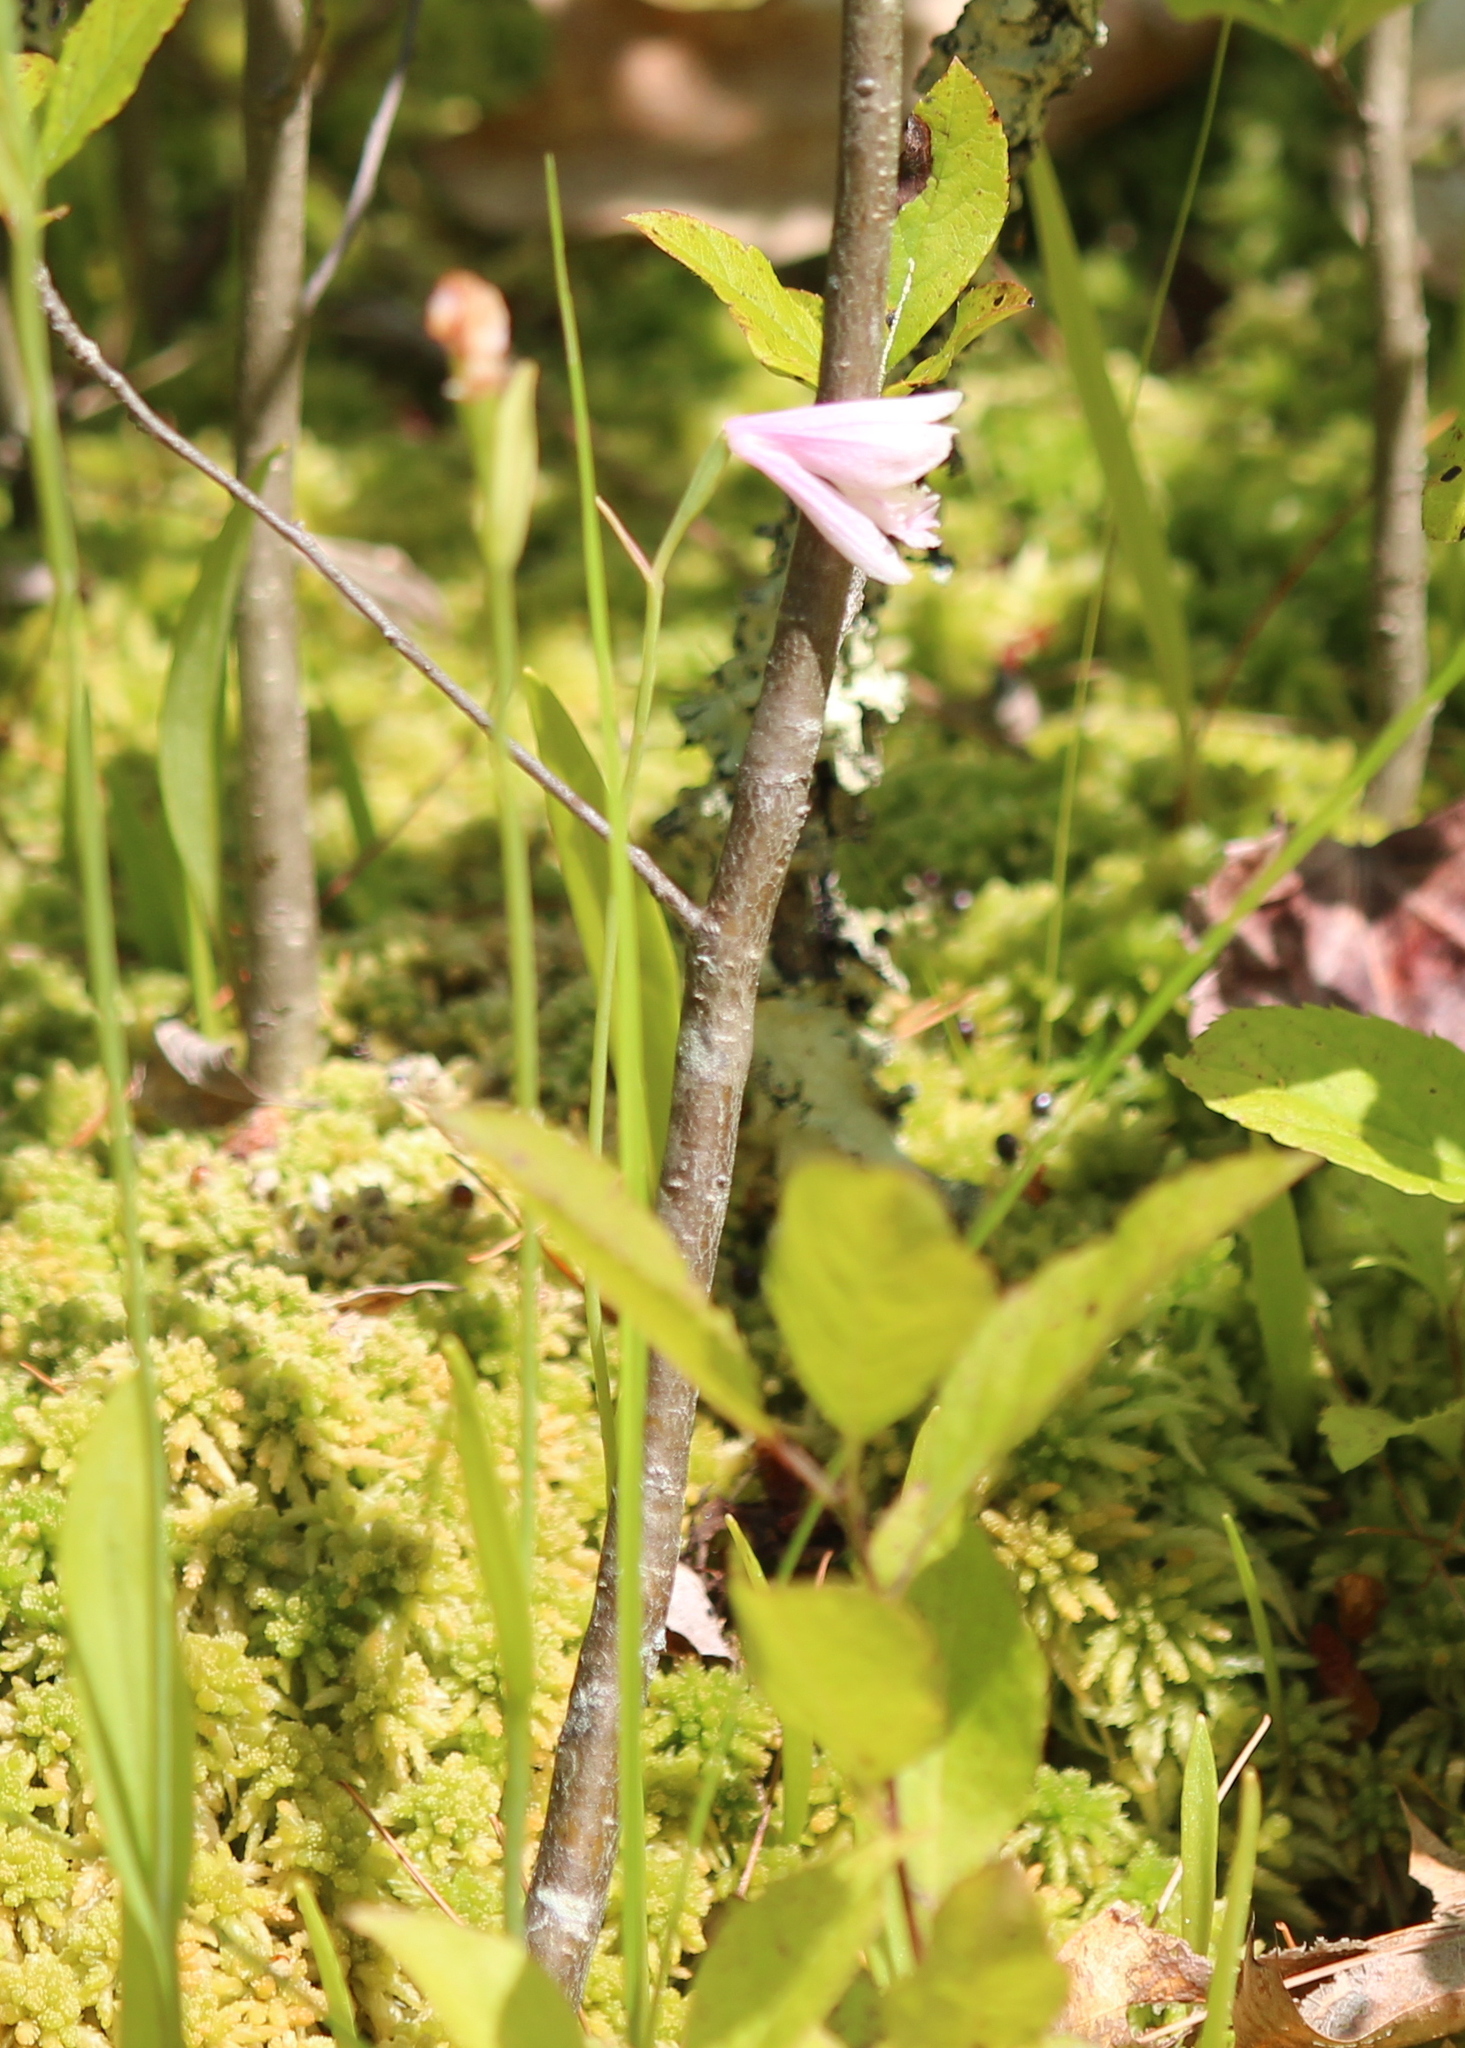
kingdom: Plantae
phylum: Tracheophyta
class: Liliopsida
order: Asparagales
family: Orchidaceae
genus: Pogonia
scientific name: Pogonia ophioglossoides
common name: Rose pogonia
